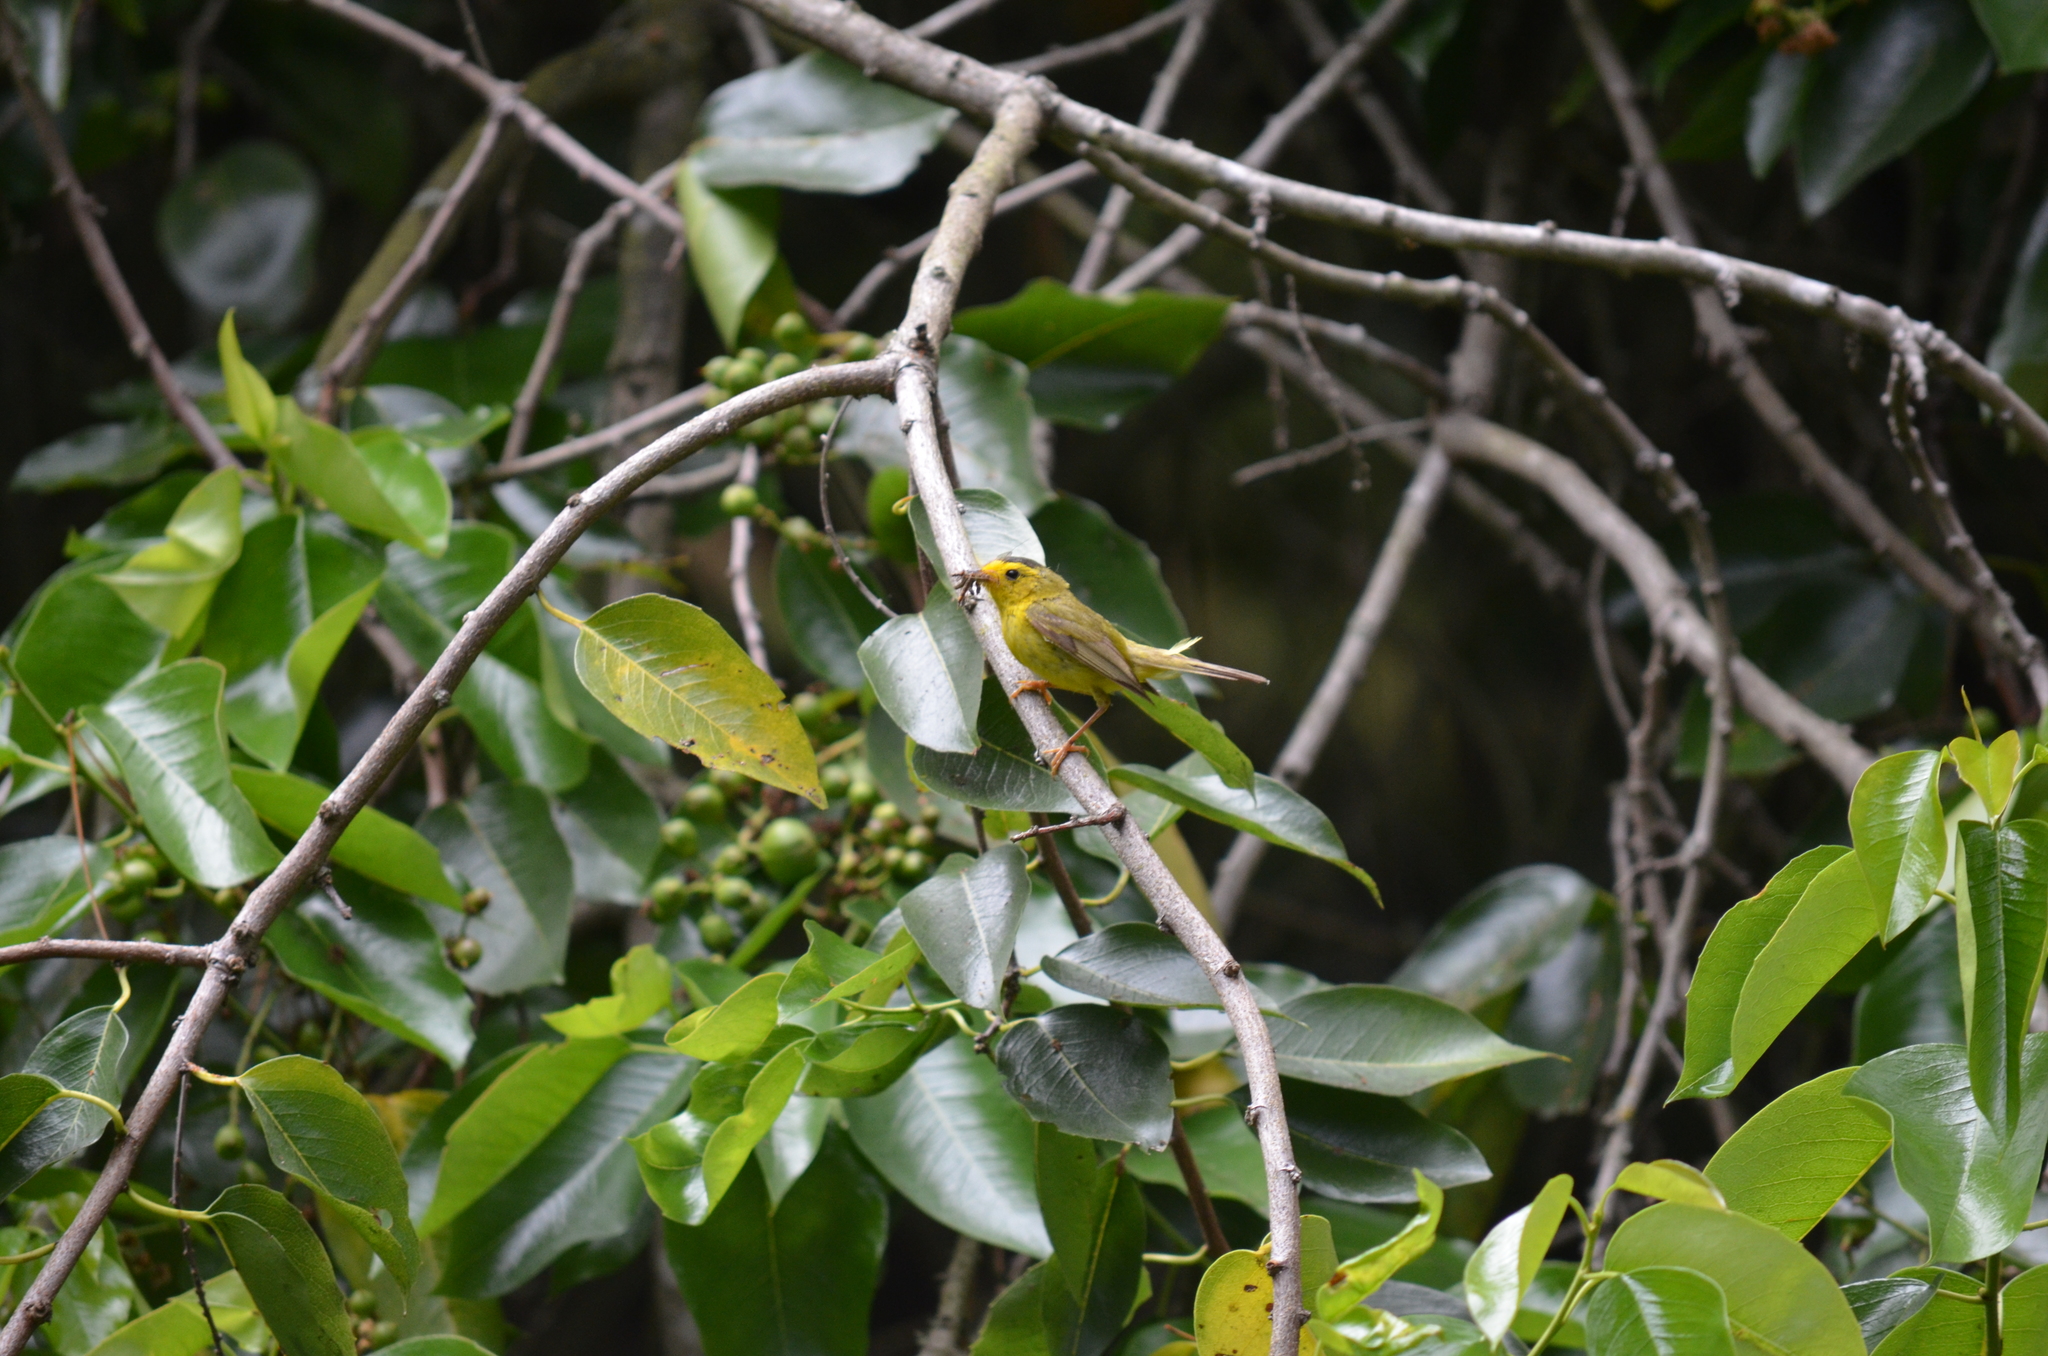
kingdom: Animalia
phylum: Chordata
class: Aves
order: Passeriformes
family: Parulidae
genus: Cardellina
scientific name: Cardellina pusilla
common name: Wilson's warbler
